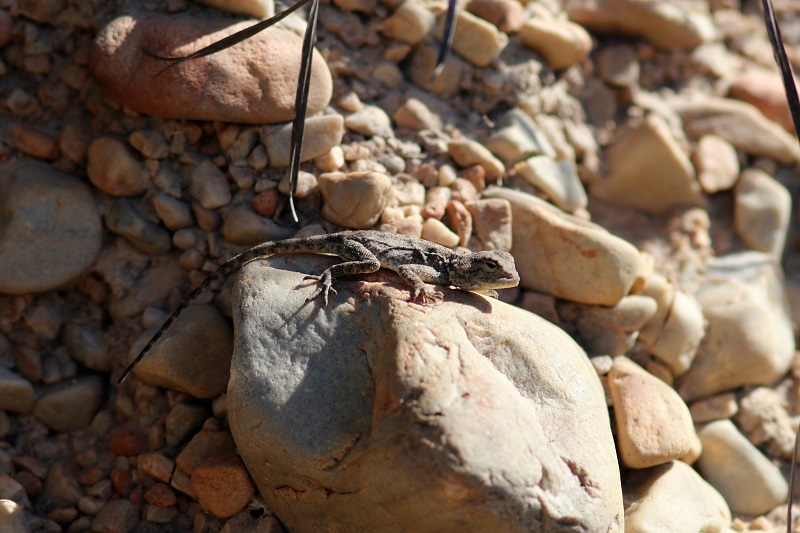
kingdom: Animalia
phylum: Chordata
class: Squamata
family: Agamidae
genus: Agama
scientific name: Agama atra
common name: Southern african rock agama
